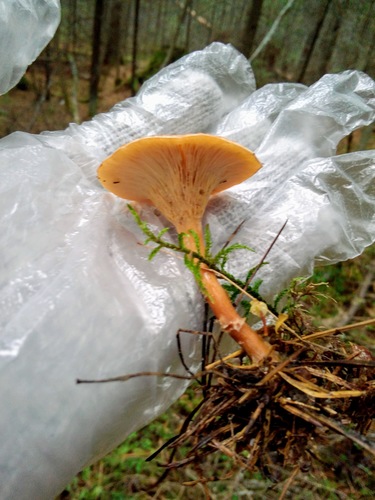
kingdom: Fungi
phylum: Basidiomycota
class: Agaricomycetes
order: Agaricales
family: Tricholomataceae
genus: Infundibulicybe
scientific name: Infundibulicybe gibba
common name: Common funnel
